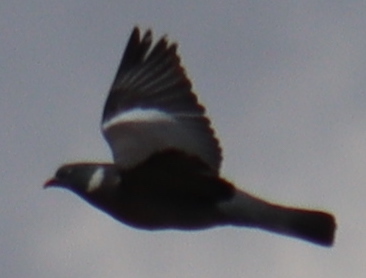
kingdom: Animalia
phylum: Chordata
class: Aves
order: Columbiformes
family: Columbidae
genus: Columba
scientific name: Columba palumbus
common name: Common wood pigeon
